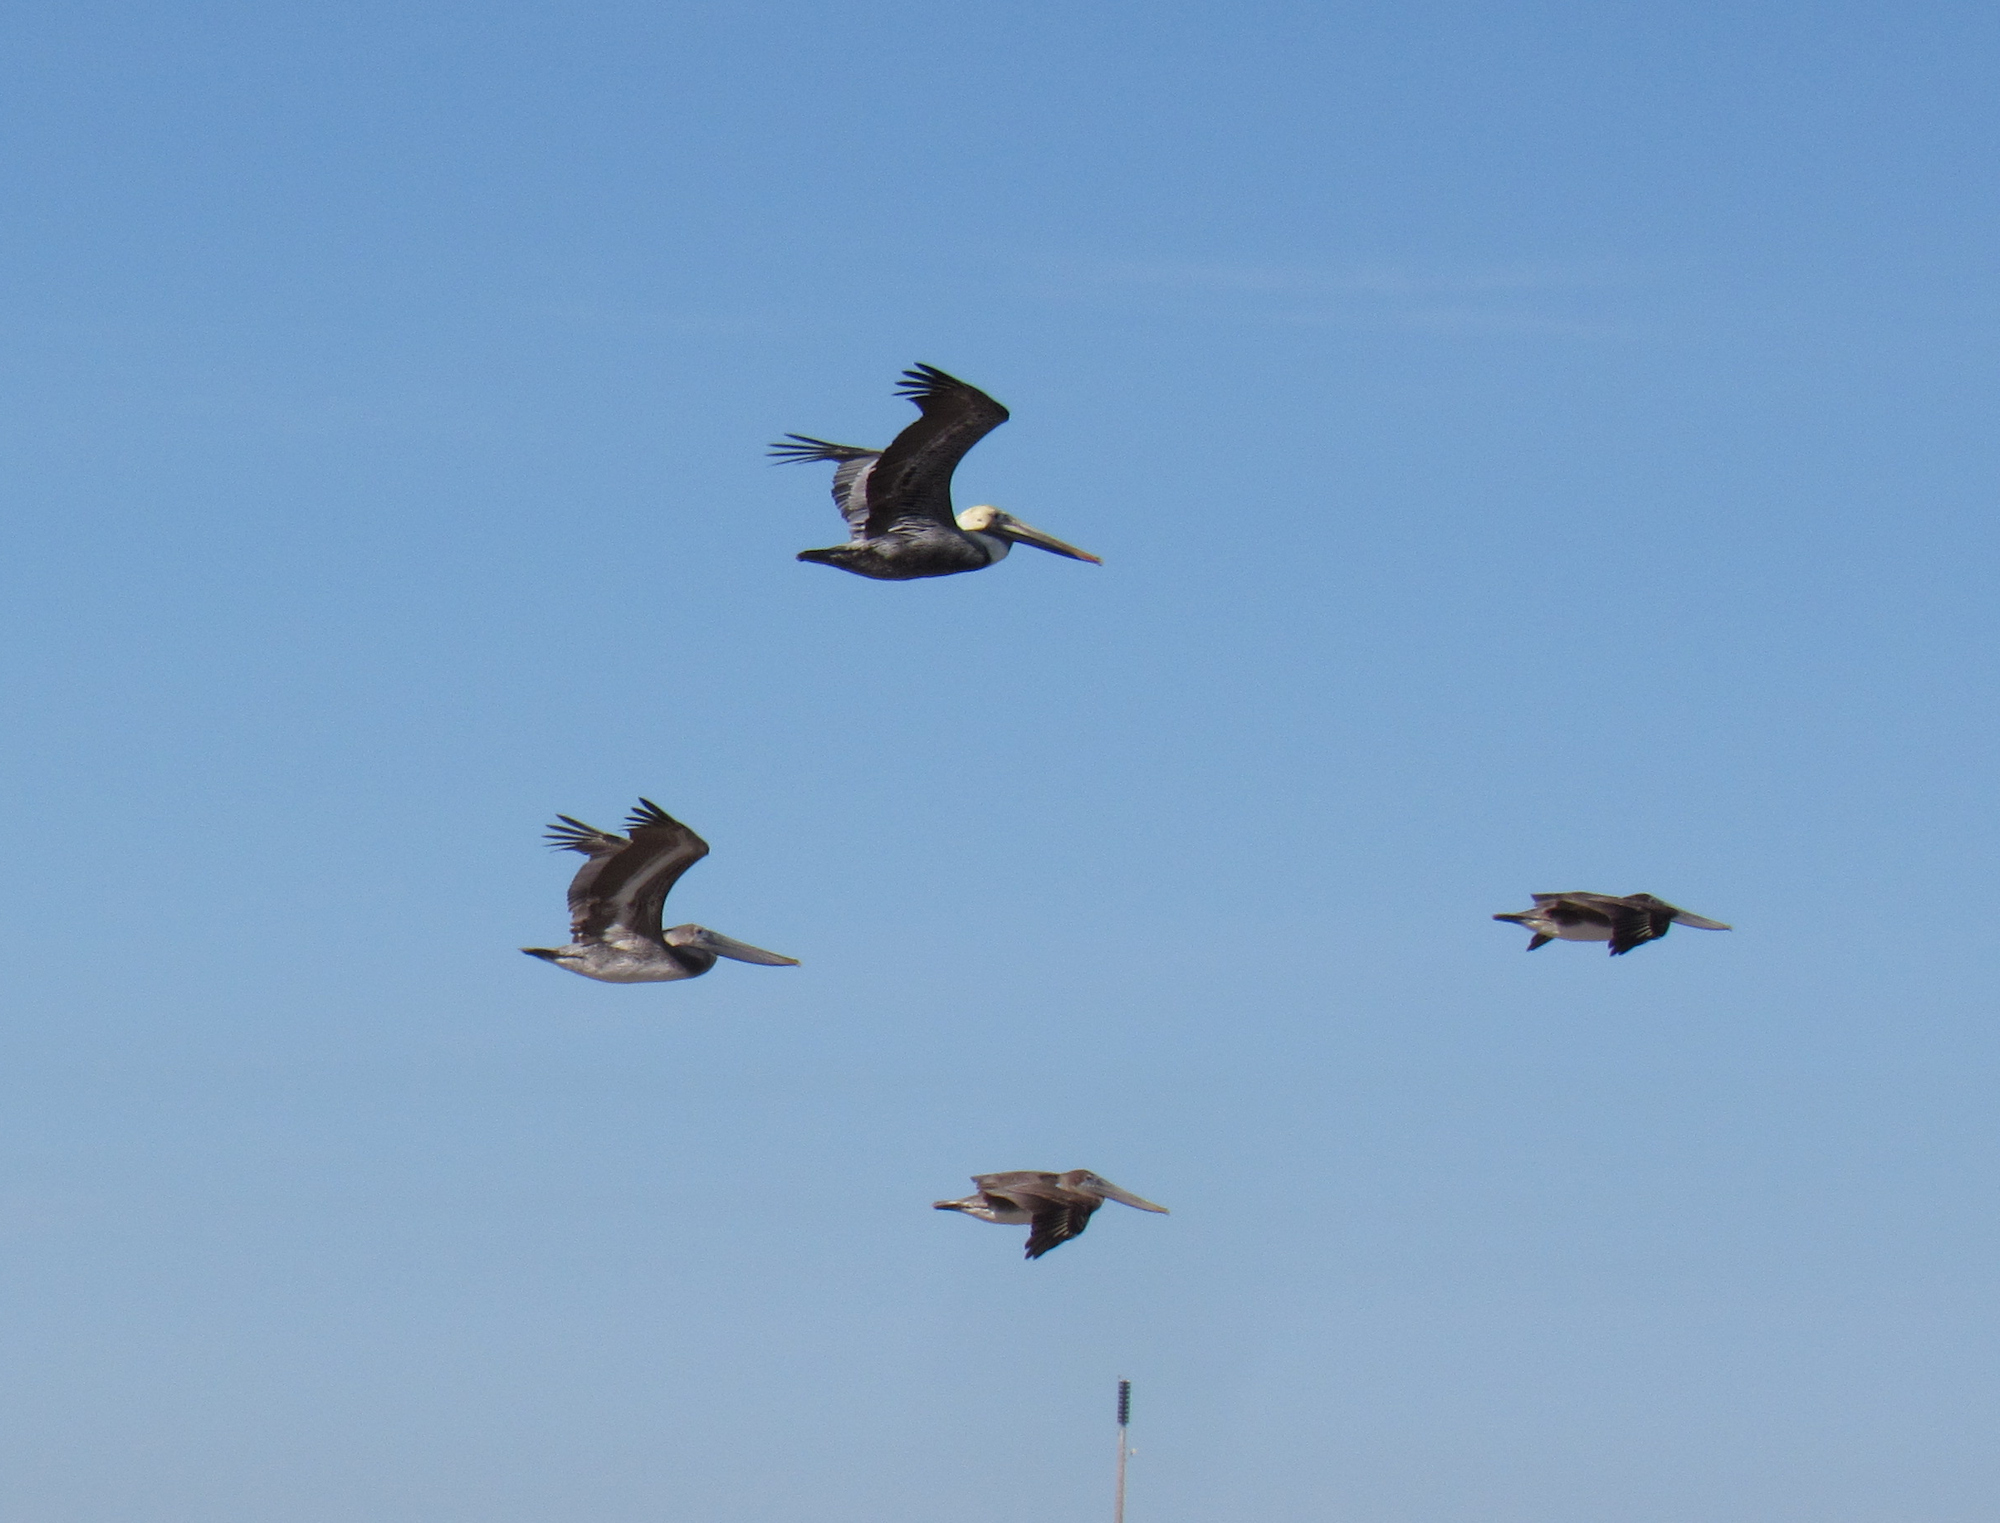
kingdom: Animalia
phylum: Chordata
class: Aves
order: Pelecaniformes
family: Pelecanidae
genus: Pelecanus
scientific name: Pelecanus occidentalis
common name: Brown pelican
